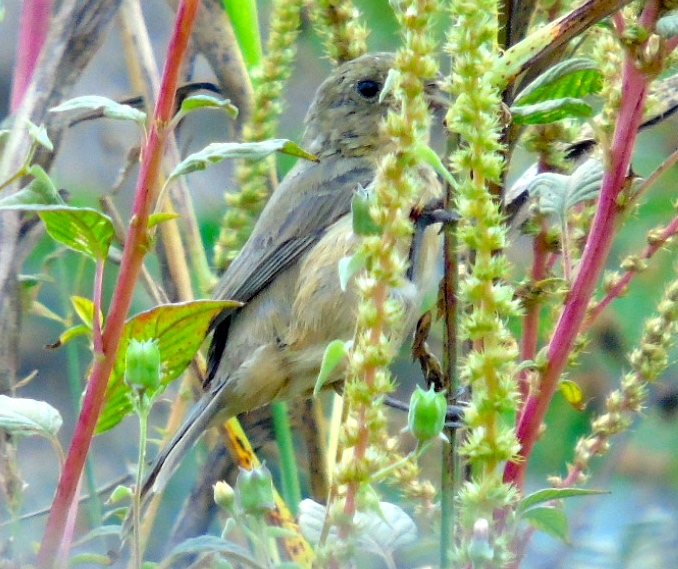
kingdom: Animalia
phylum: Chordata
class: Aves
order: Passeriformes
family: Thraupidae
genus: Sporophila
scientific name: Sporophila torqueola
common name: White-collared seedeater
